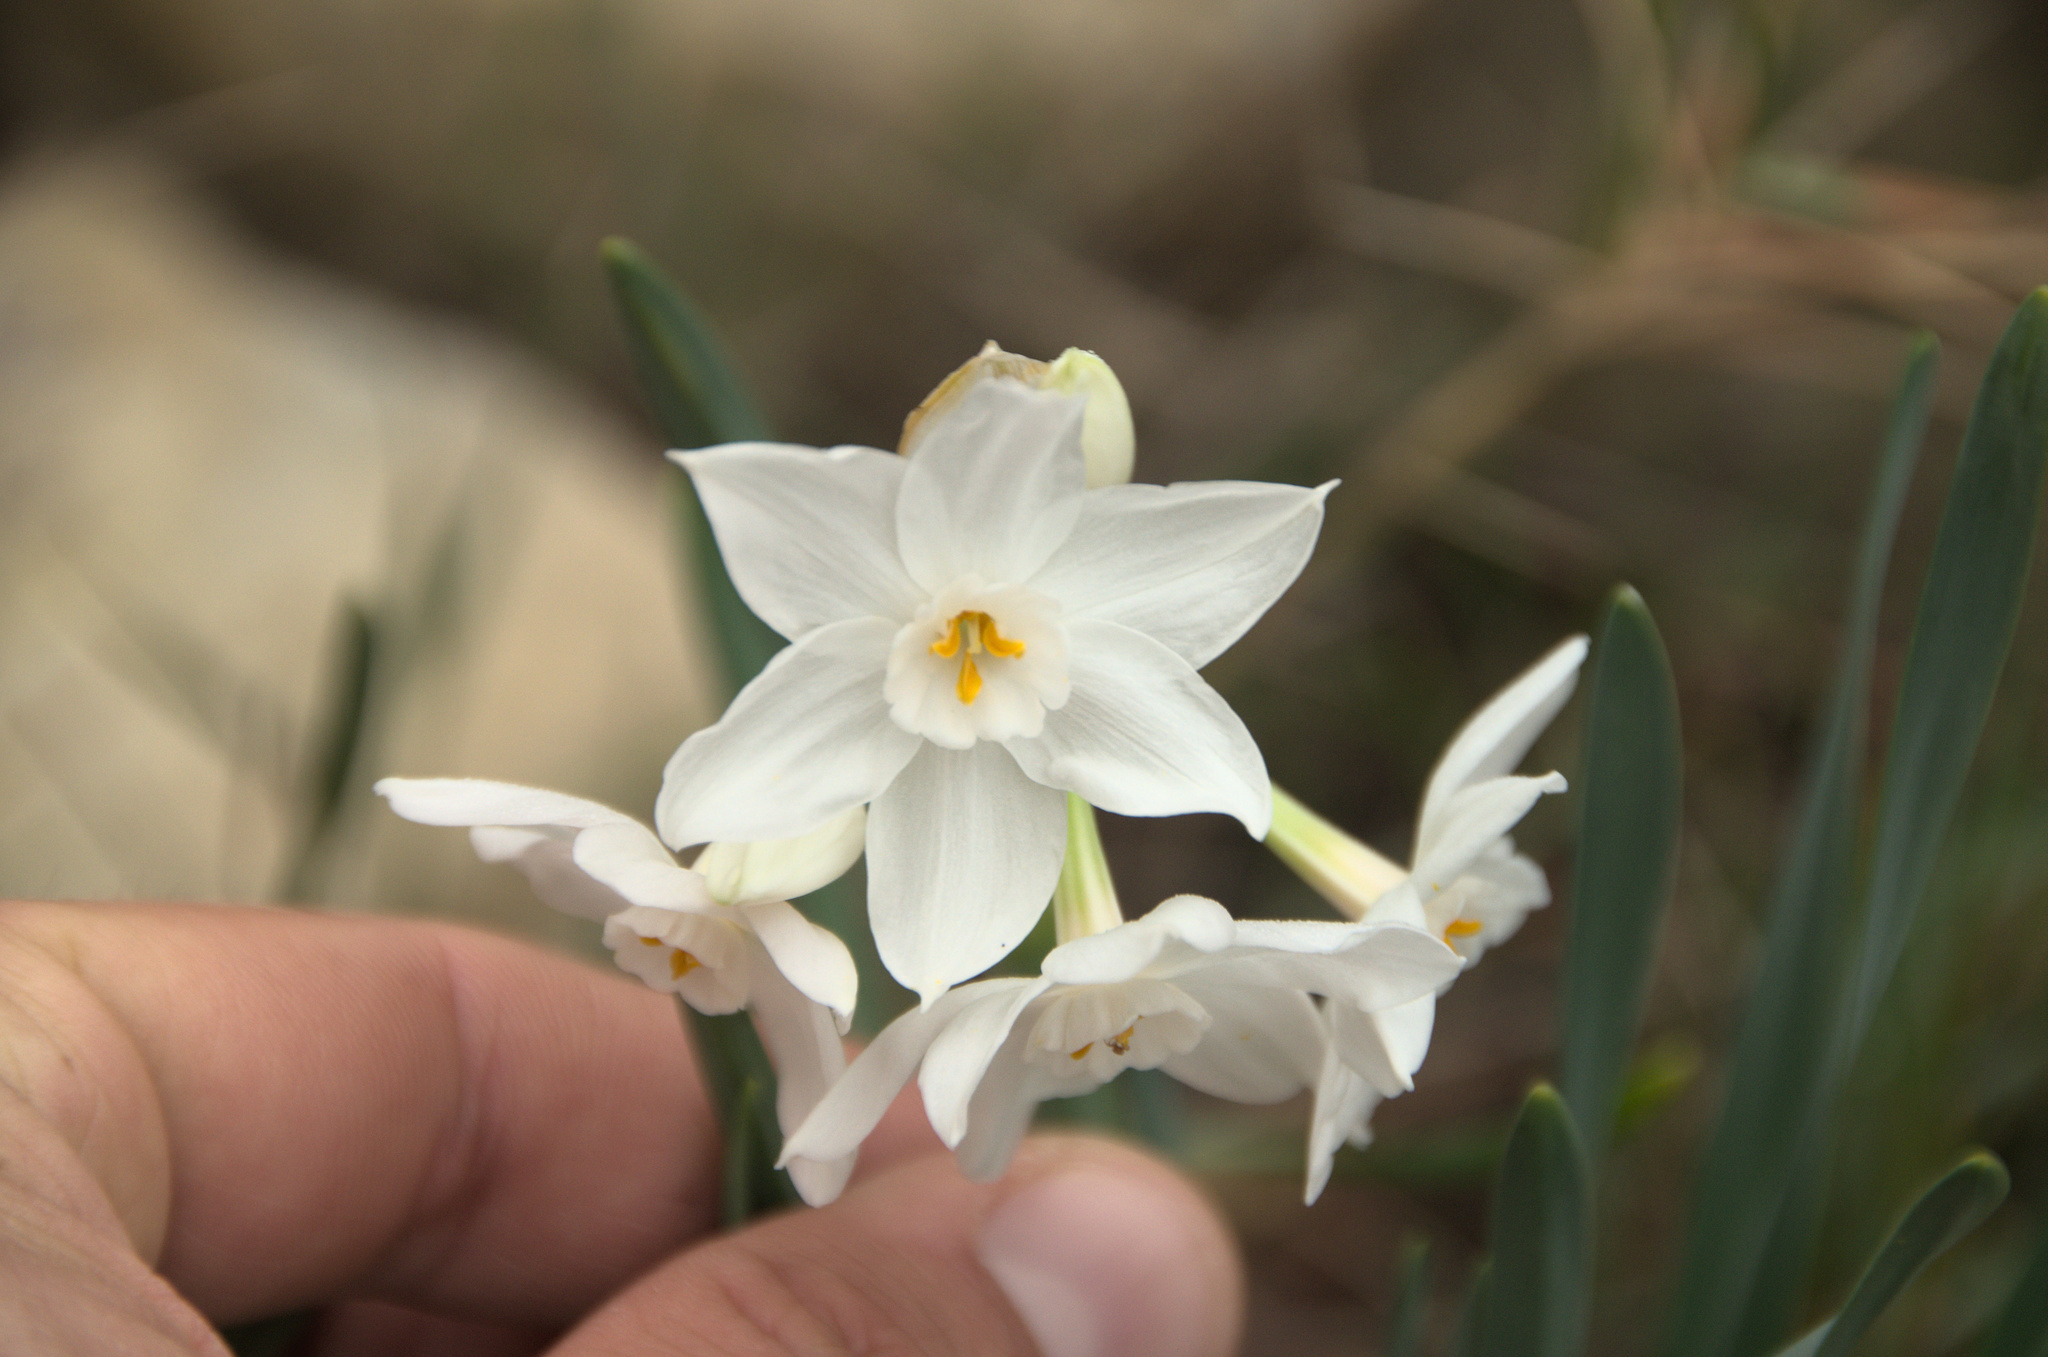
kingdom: Plantae
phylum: Tracheophyta
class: Liliopsida
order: Asparagales
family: Amaryllidaceae
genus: Narcissus
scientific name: Narcissus papyraceus
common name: Paper-white daffodil
